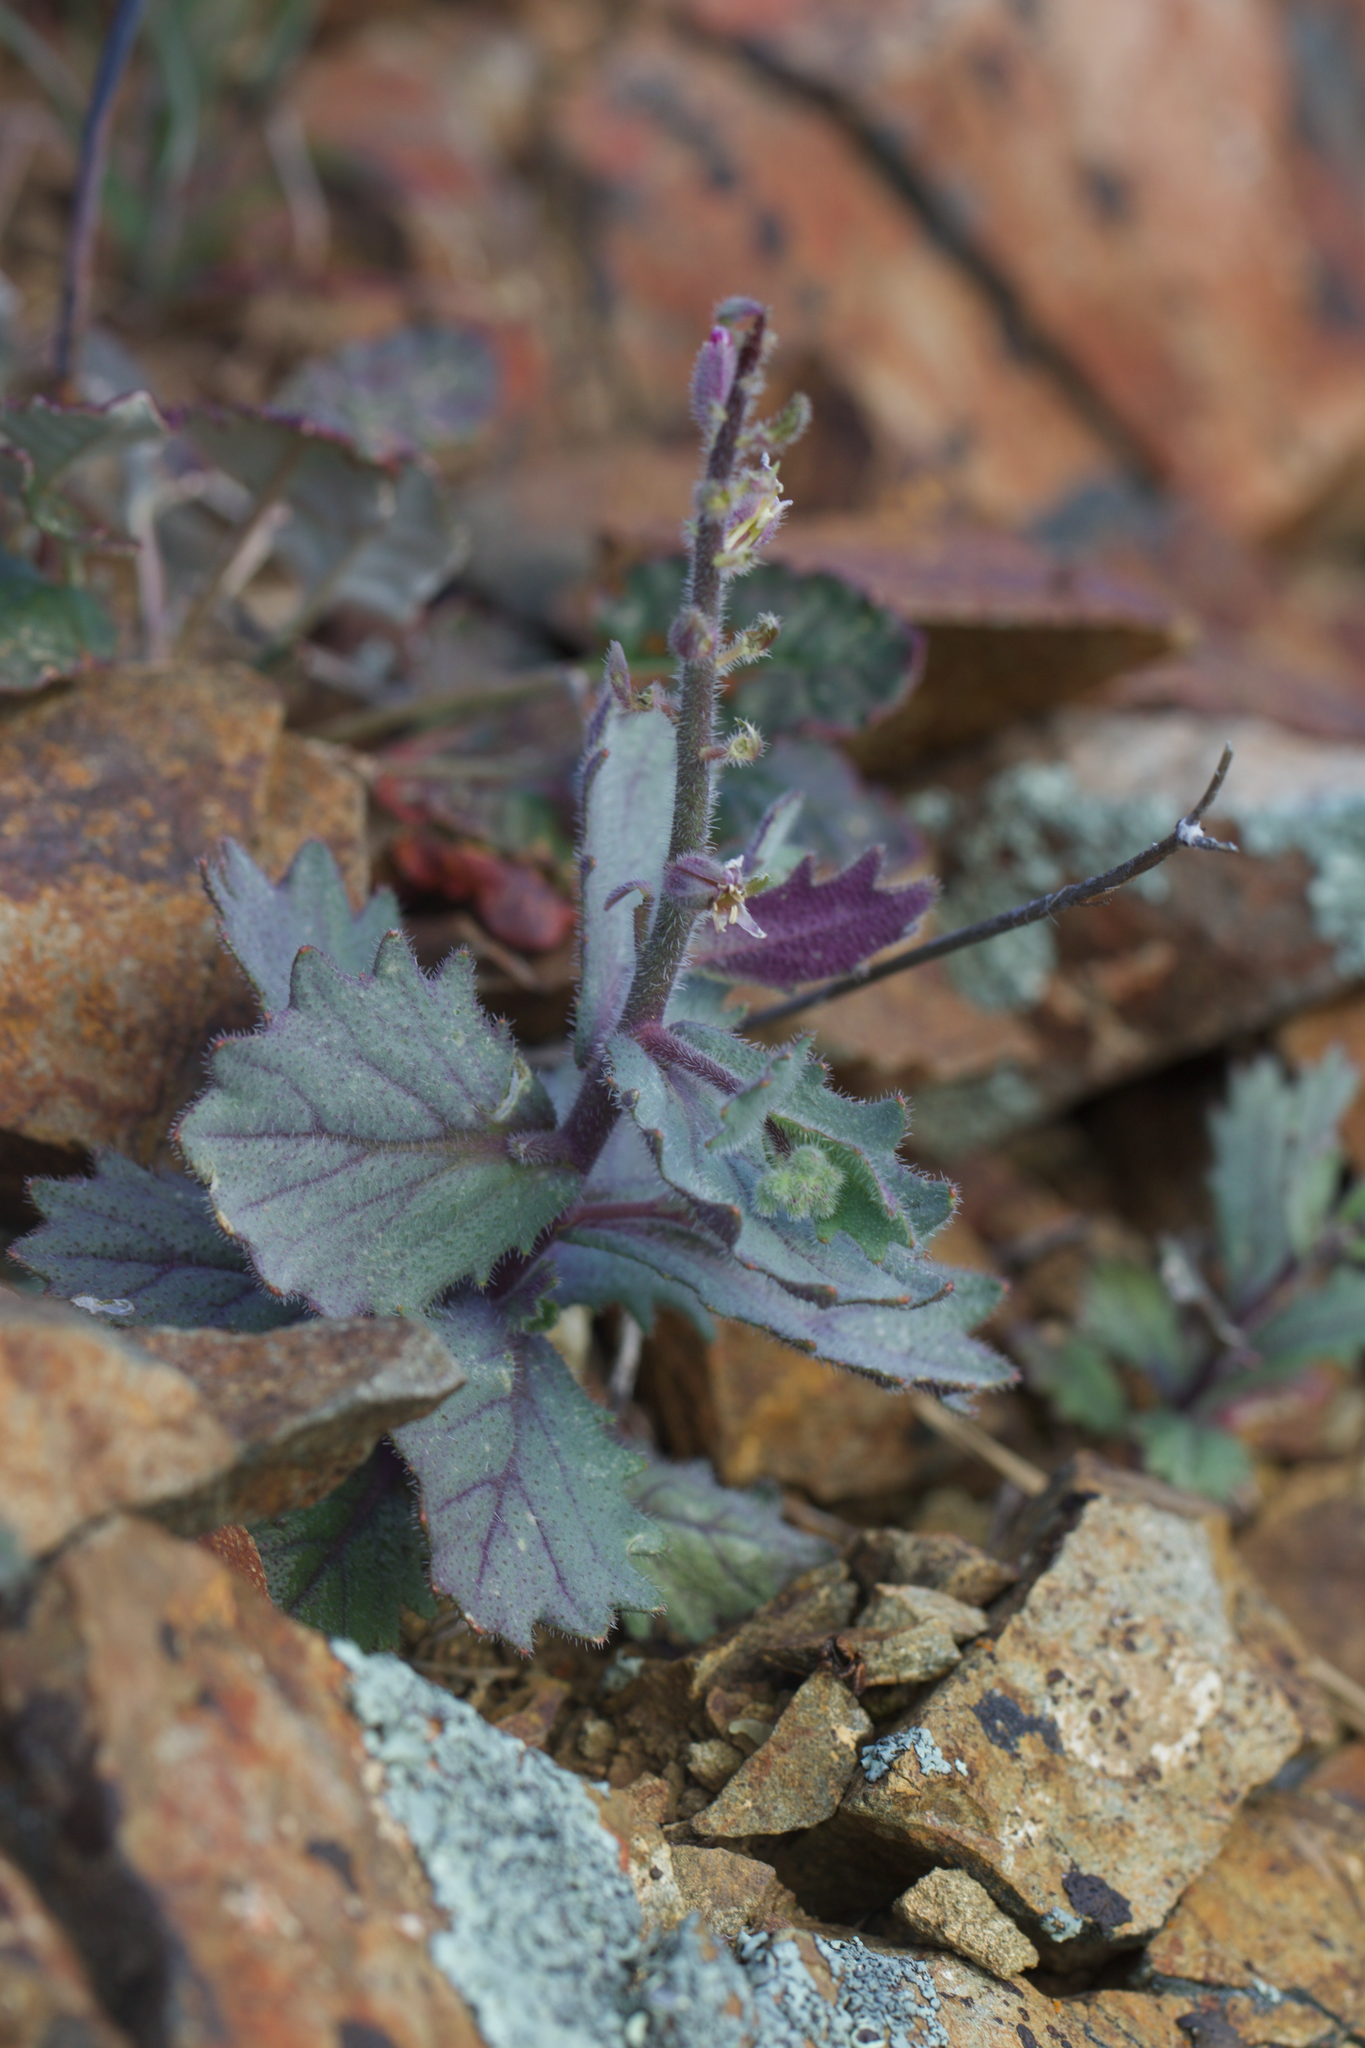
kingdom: Plantae
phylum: Tracheophyta
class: Magnoliopsida
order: Brassicales
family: Brassicaceae
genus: Streptanthus
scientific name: Streptanthus hispidus
